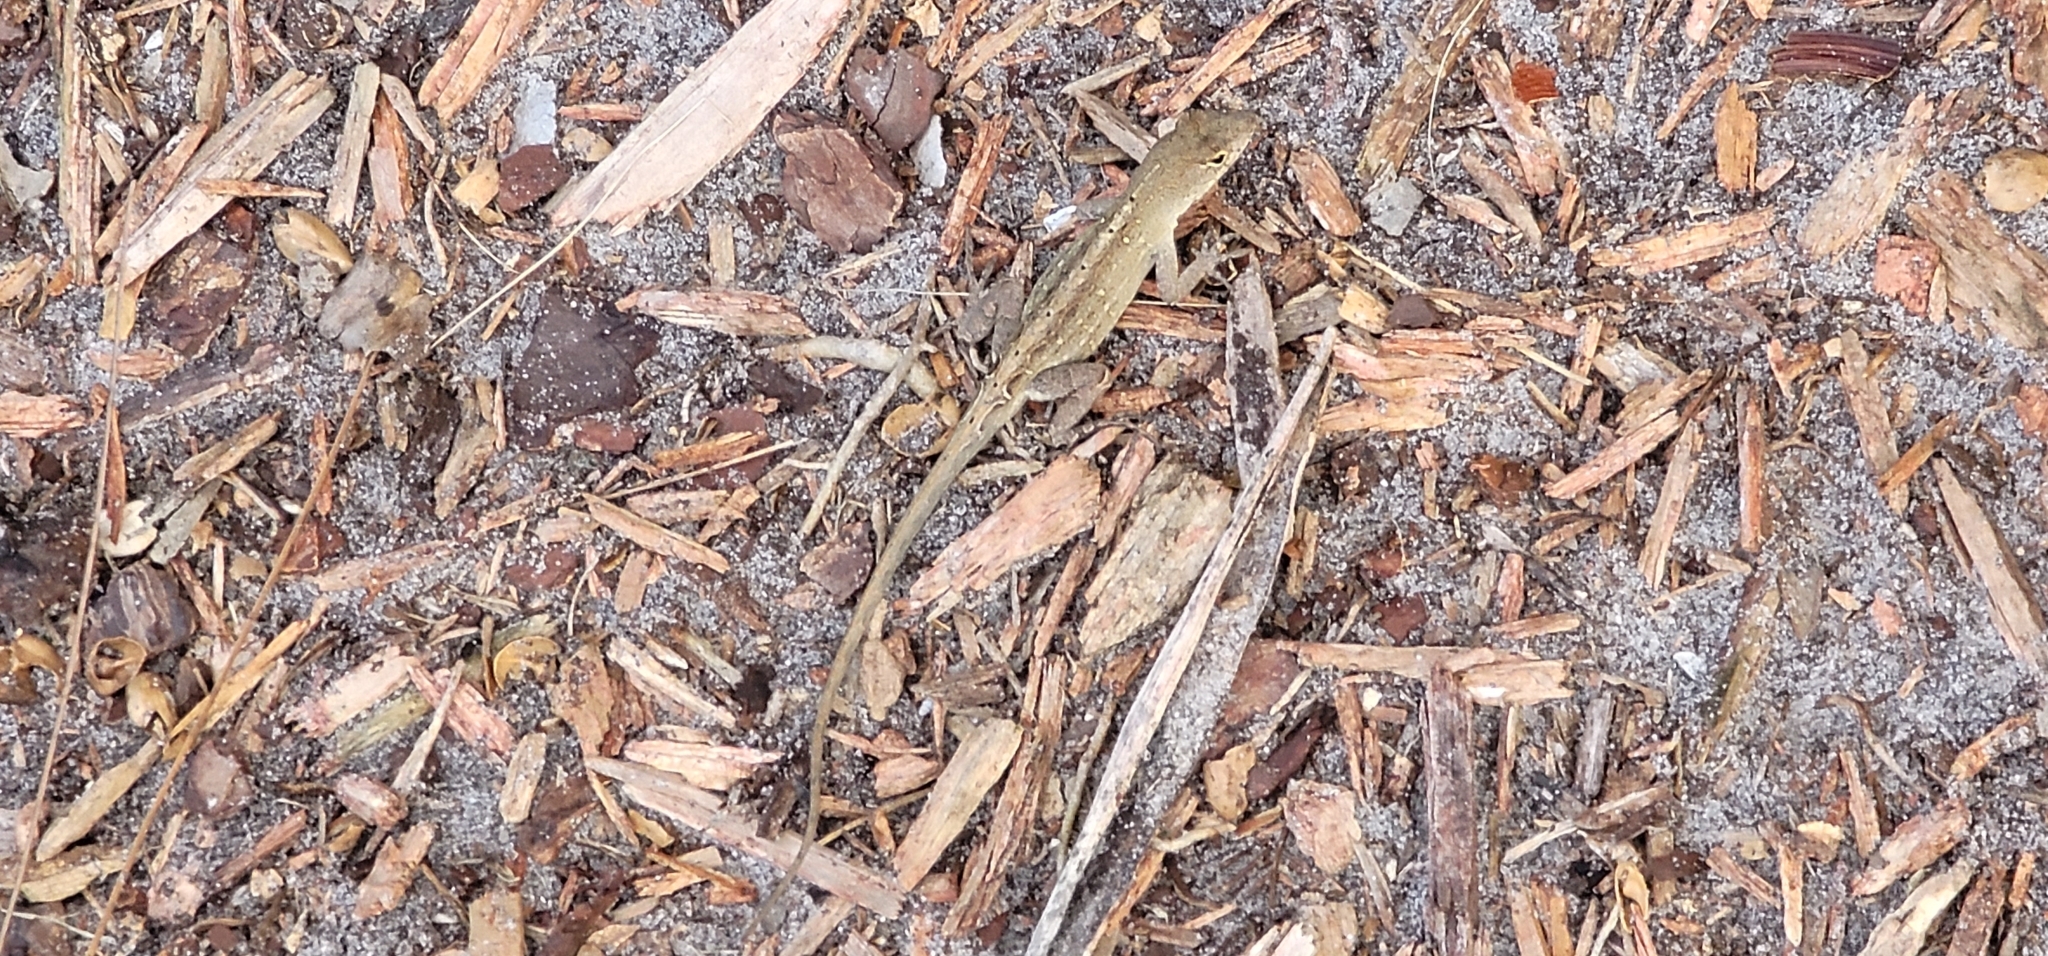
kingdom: Animalia
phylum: Chordata
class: Squamata
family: Dactyloidae
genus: Anolis
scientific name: Anolis sagrei
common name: Brown anole
